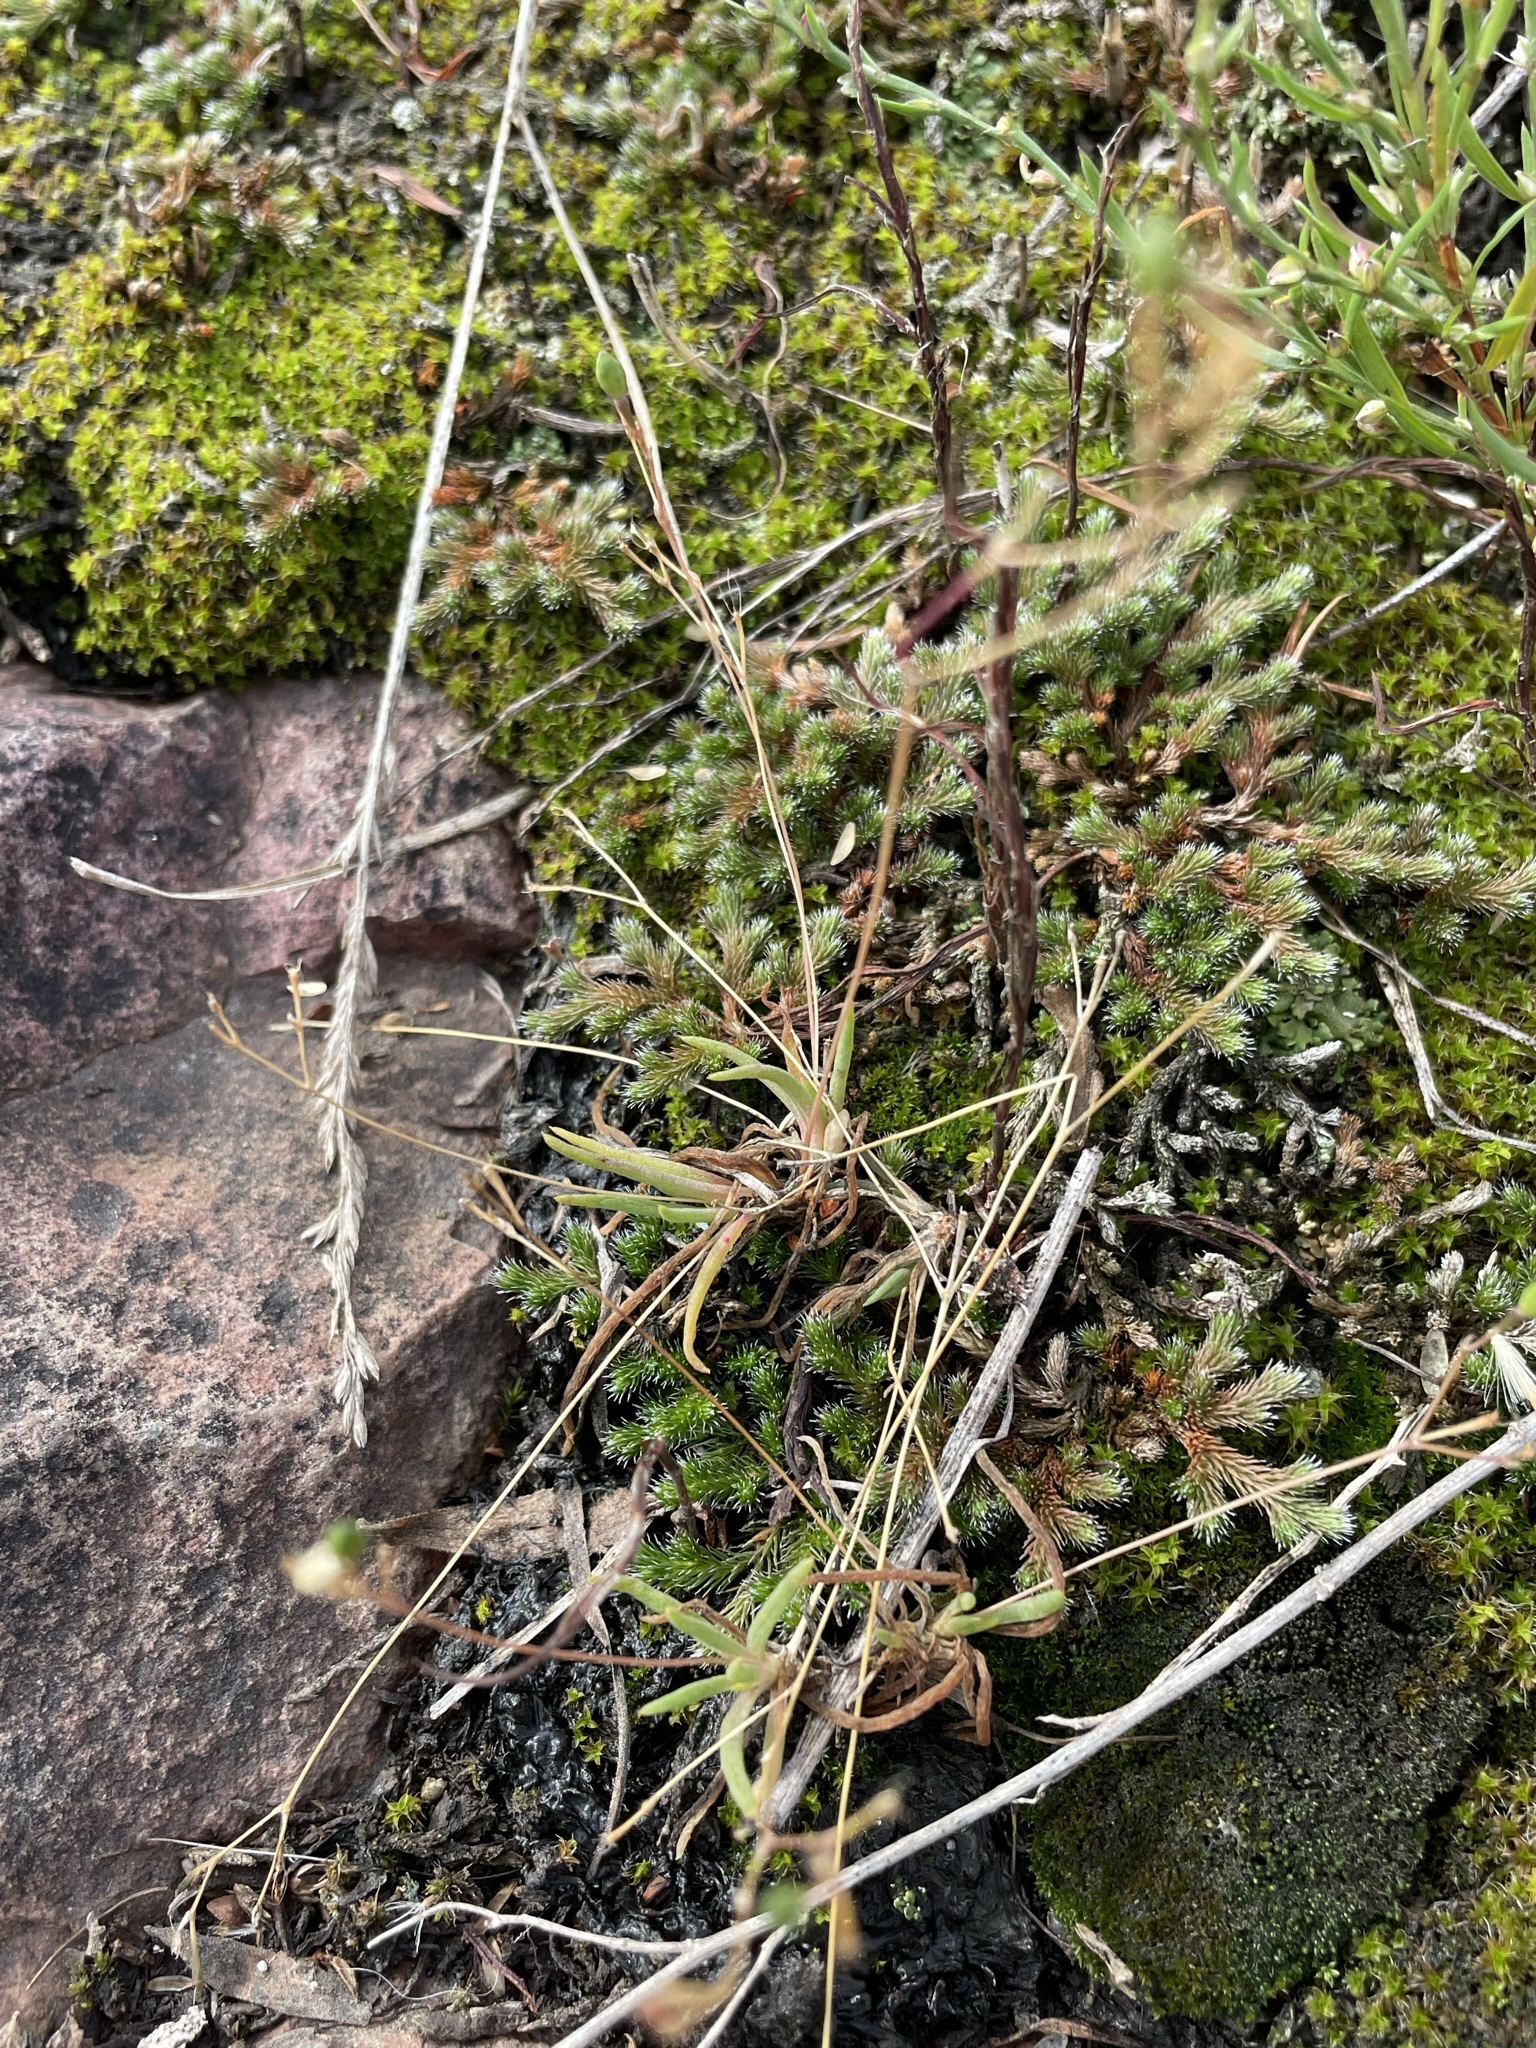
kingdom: Plantae
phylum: Tracheophyta
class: Magnoliopsida
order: Caryophyllales
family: Montiaceae
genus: Phemeranthus
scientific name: Phemeranthus parviflorus
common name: Sunbright
